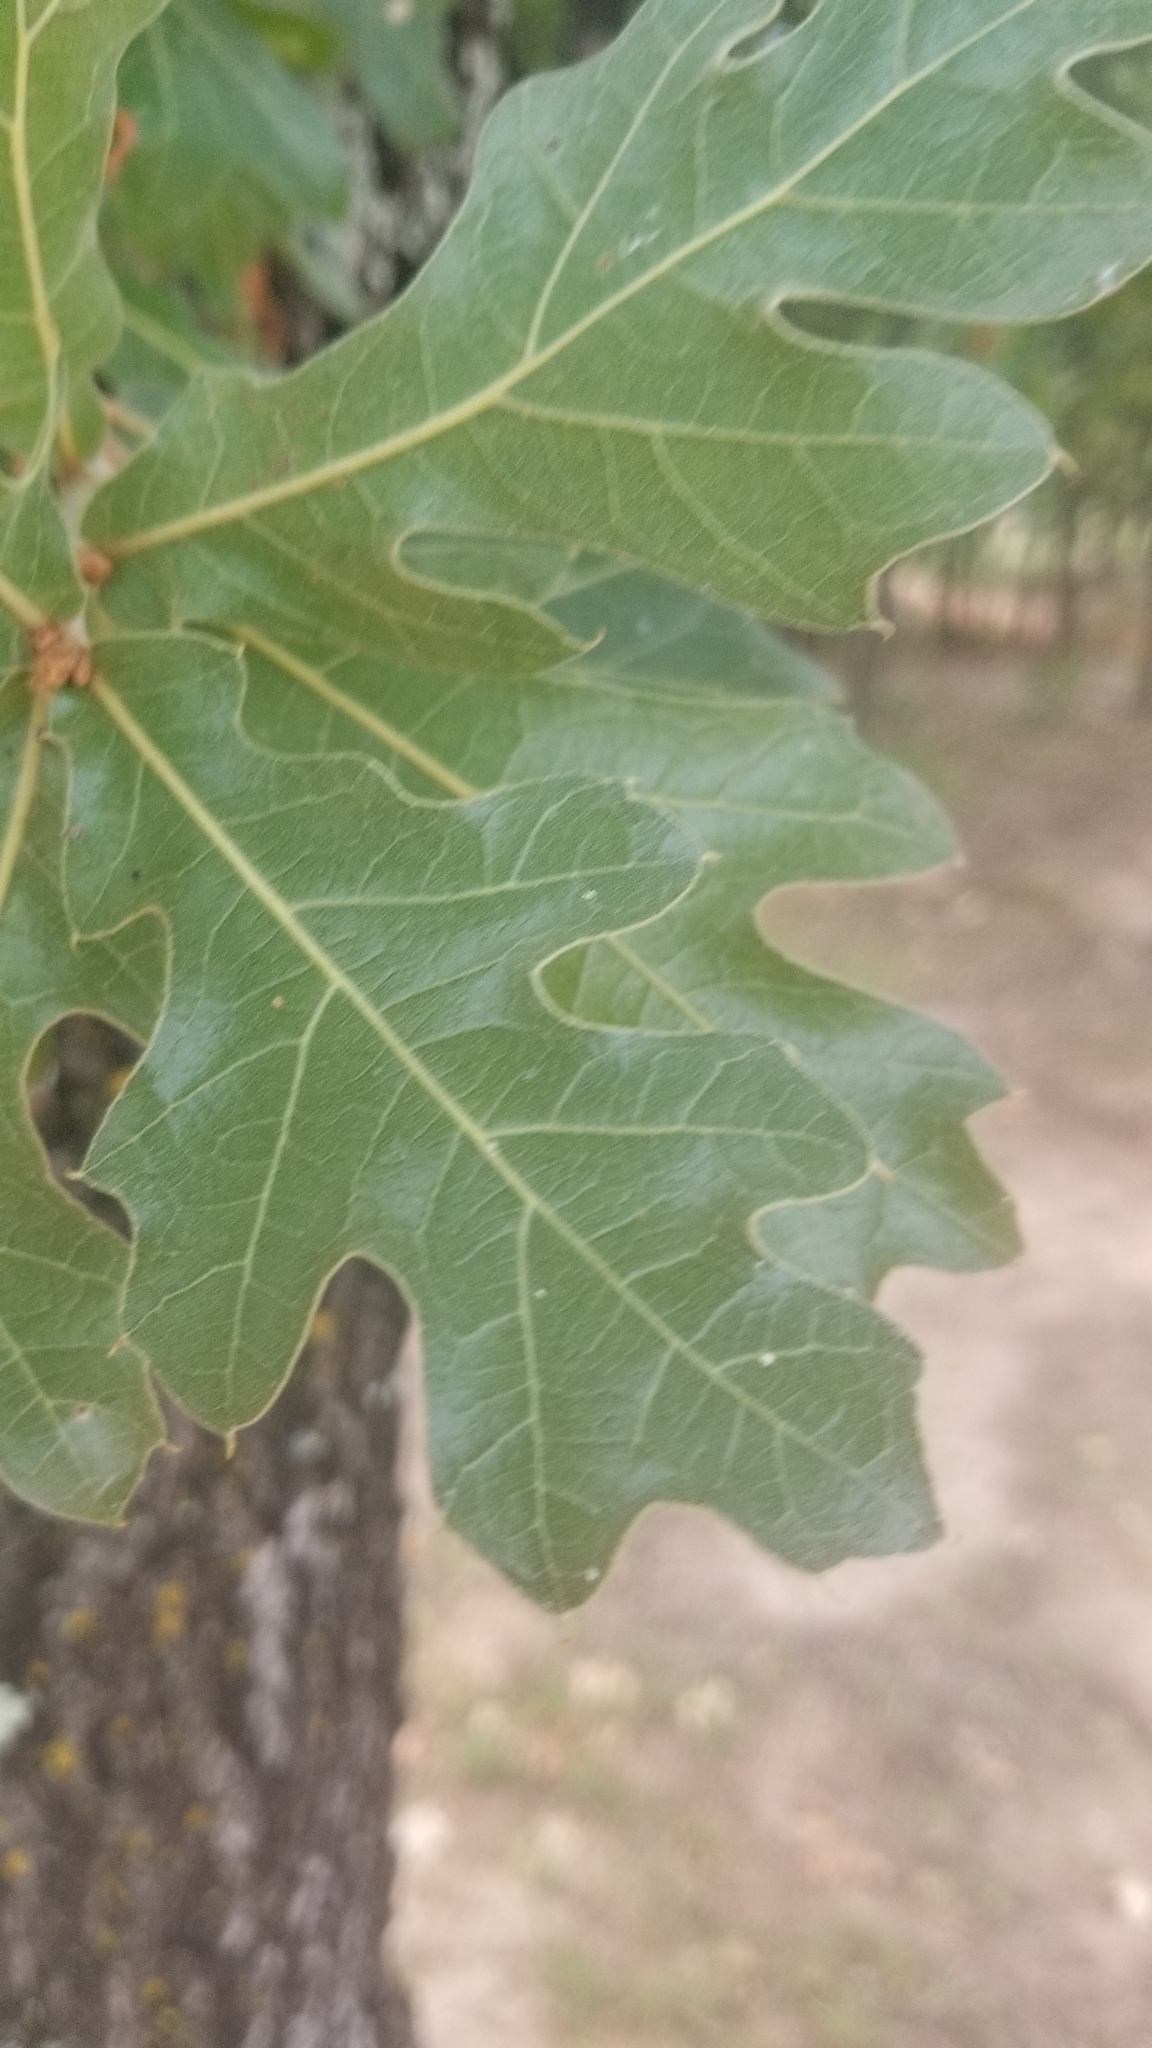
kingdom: Plantae
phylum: Tracheophyta
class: Magnoliopsida
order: Fagales
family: Fagaceae
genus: Quercus
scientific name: Quercus stellata
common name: Post oak
